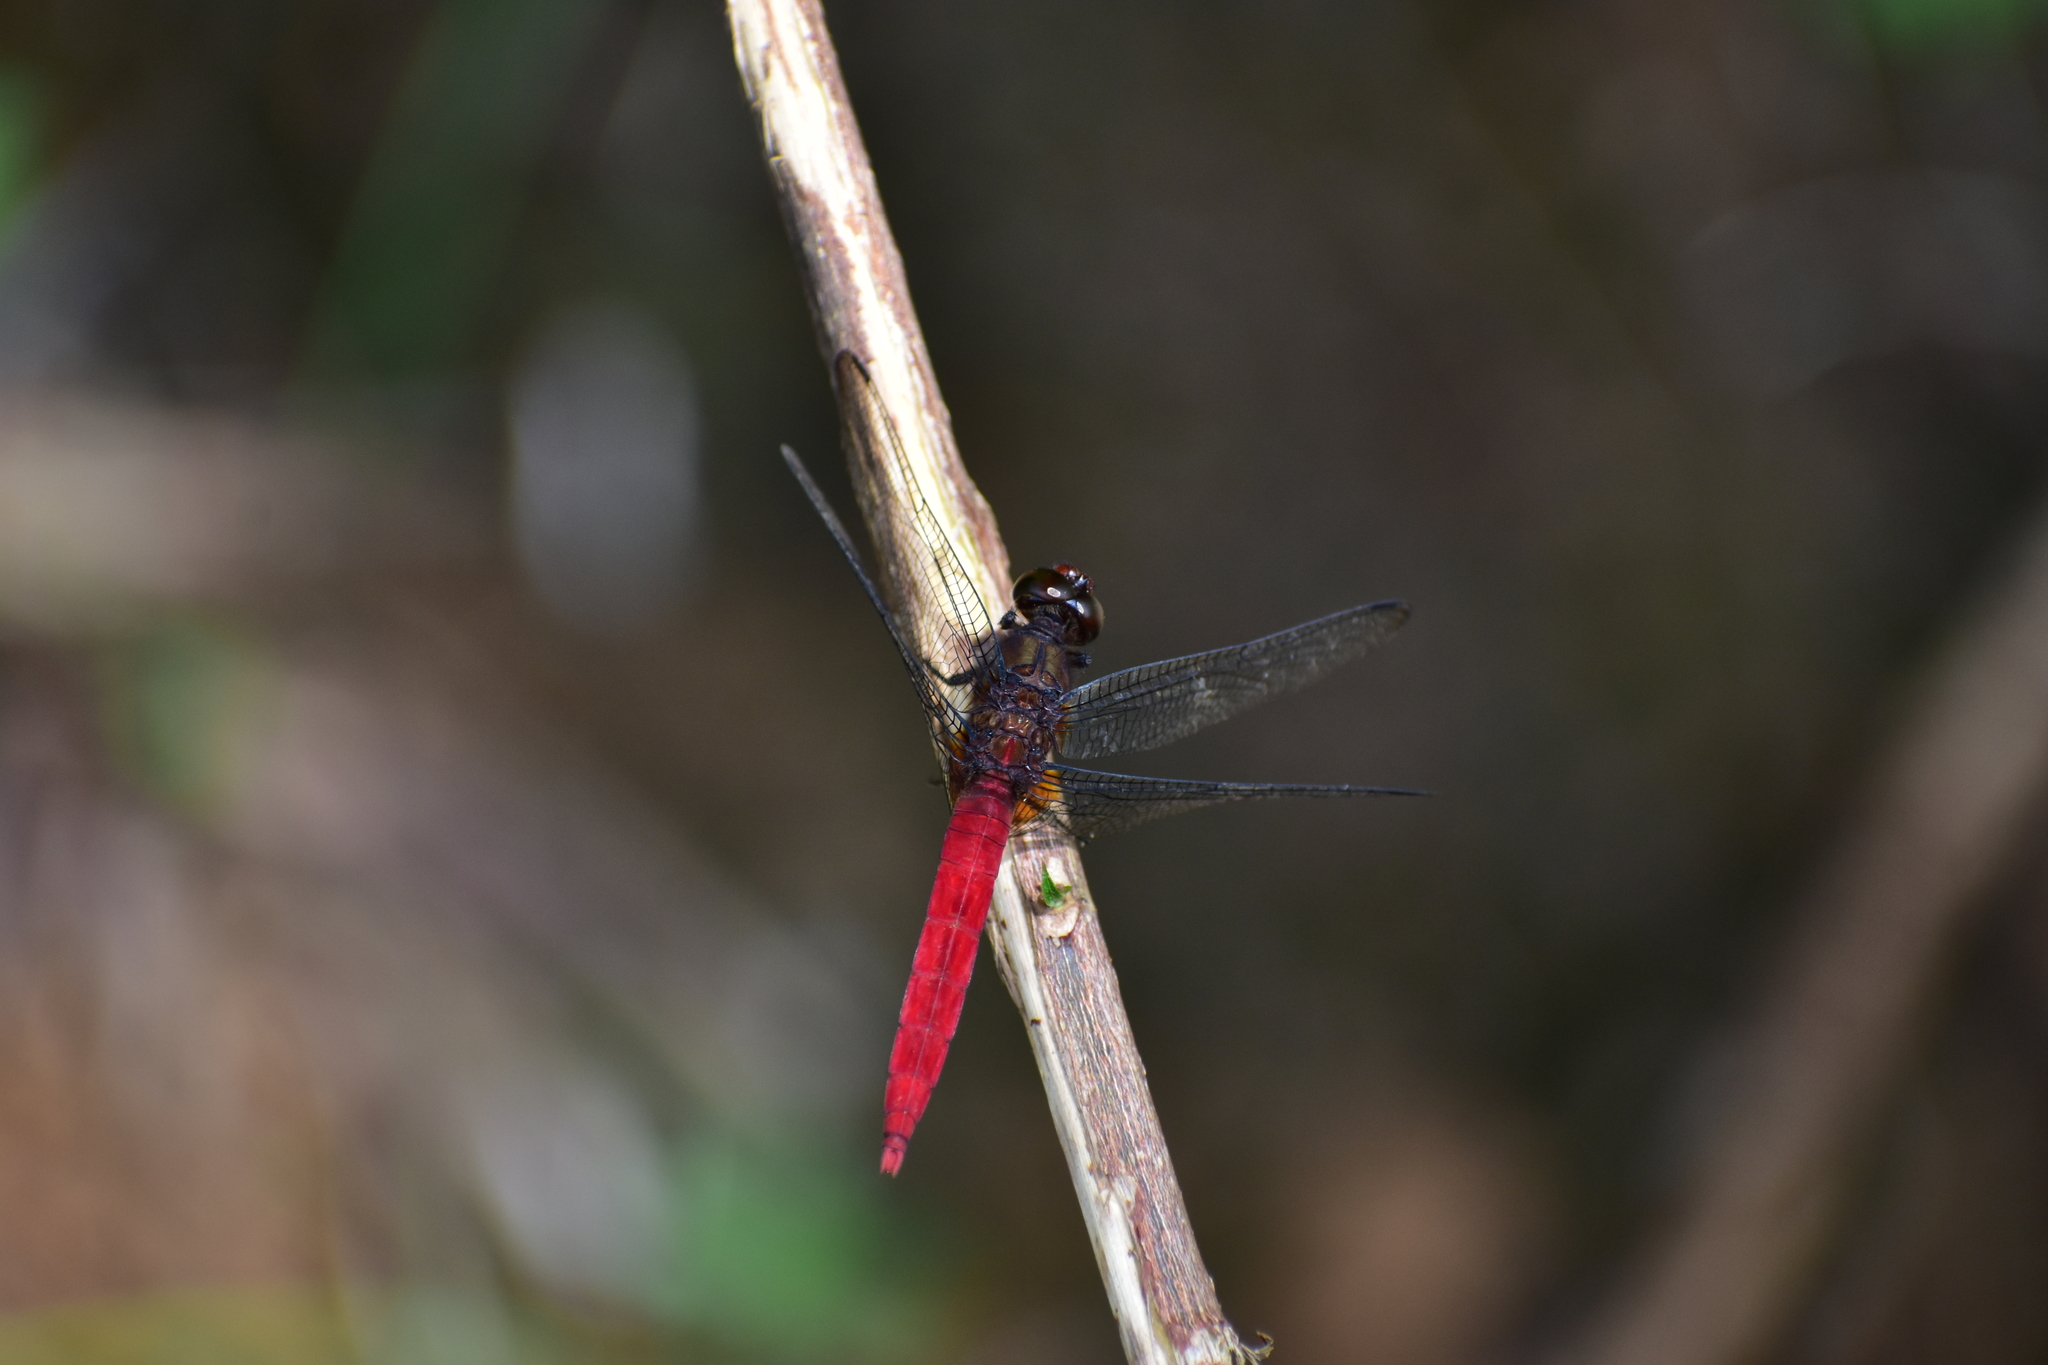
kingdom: Animalia
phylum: Arthropoda
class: Insecta
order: Odonata
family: Libellulidae
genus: Orthetrum
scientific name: Orthetrum chrysis
